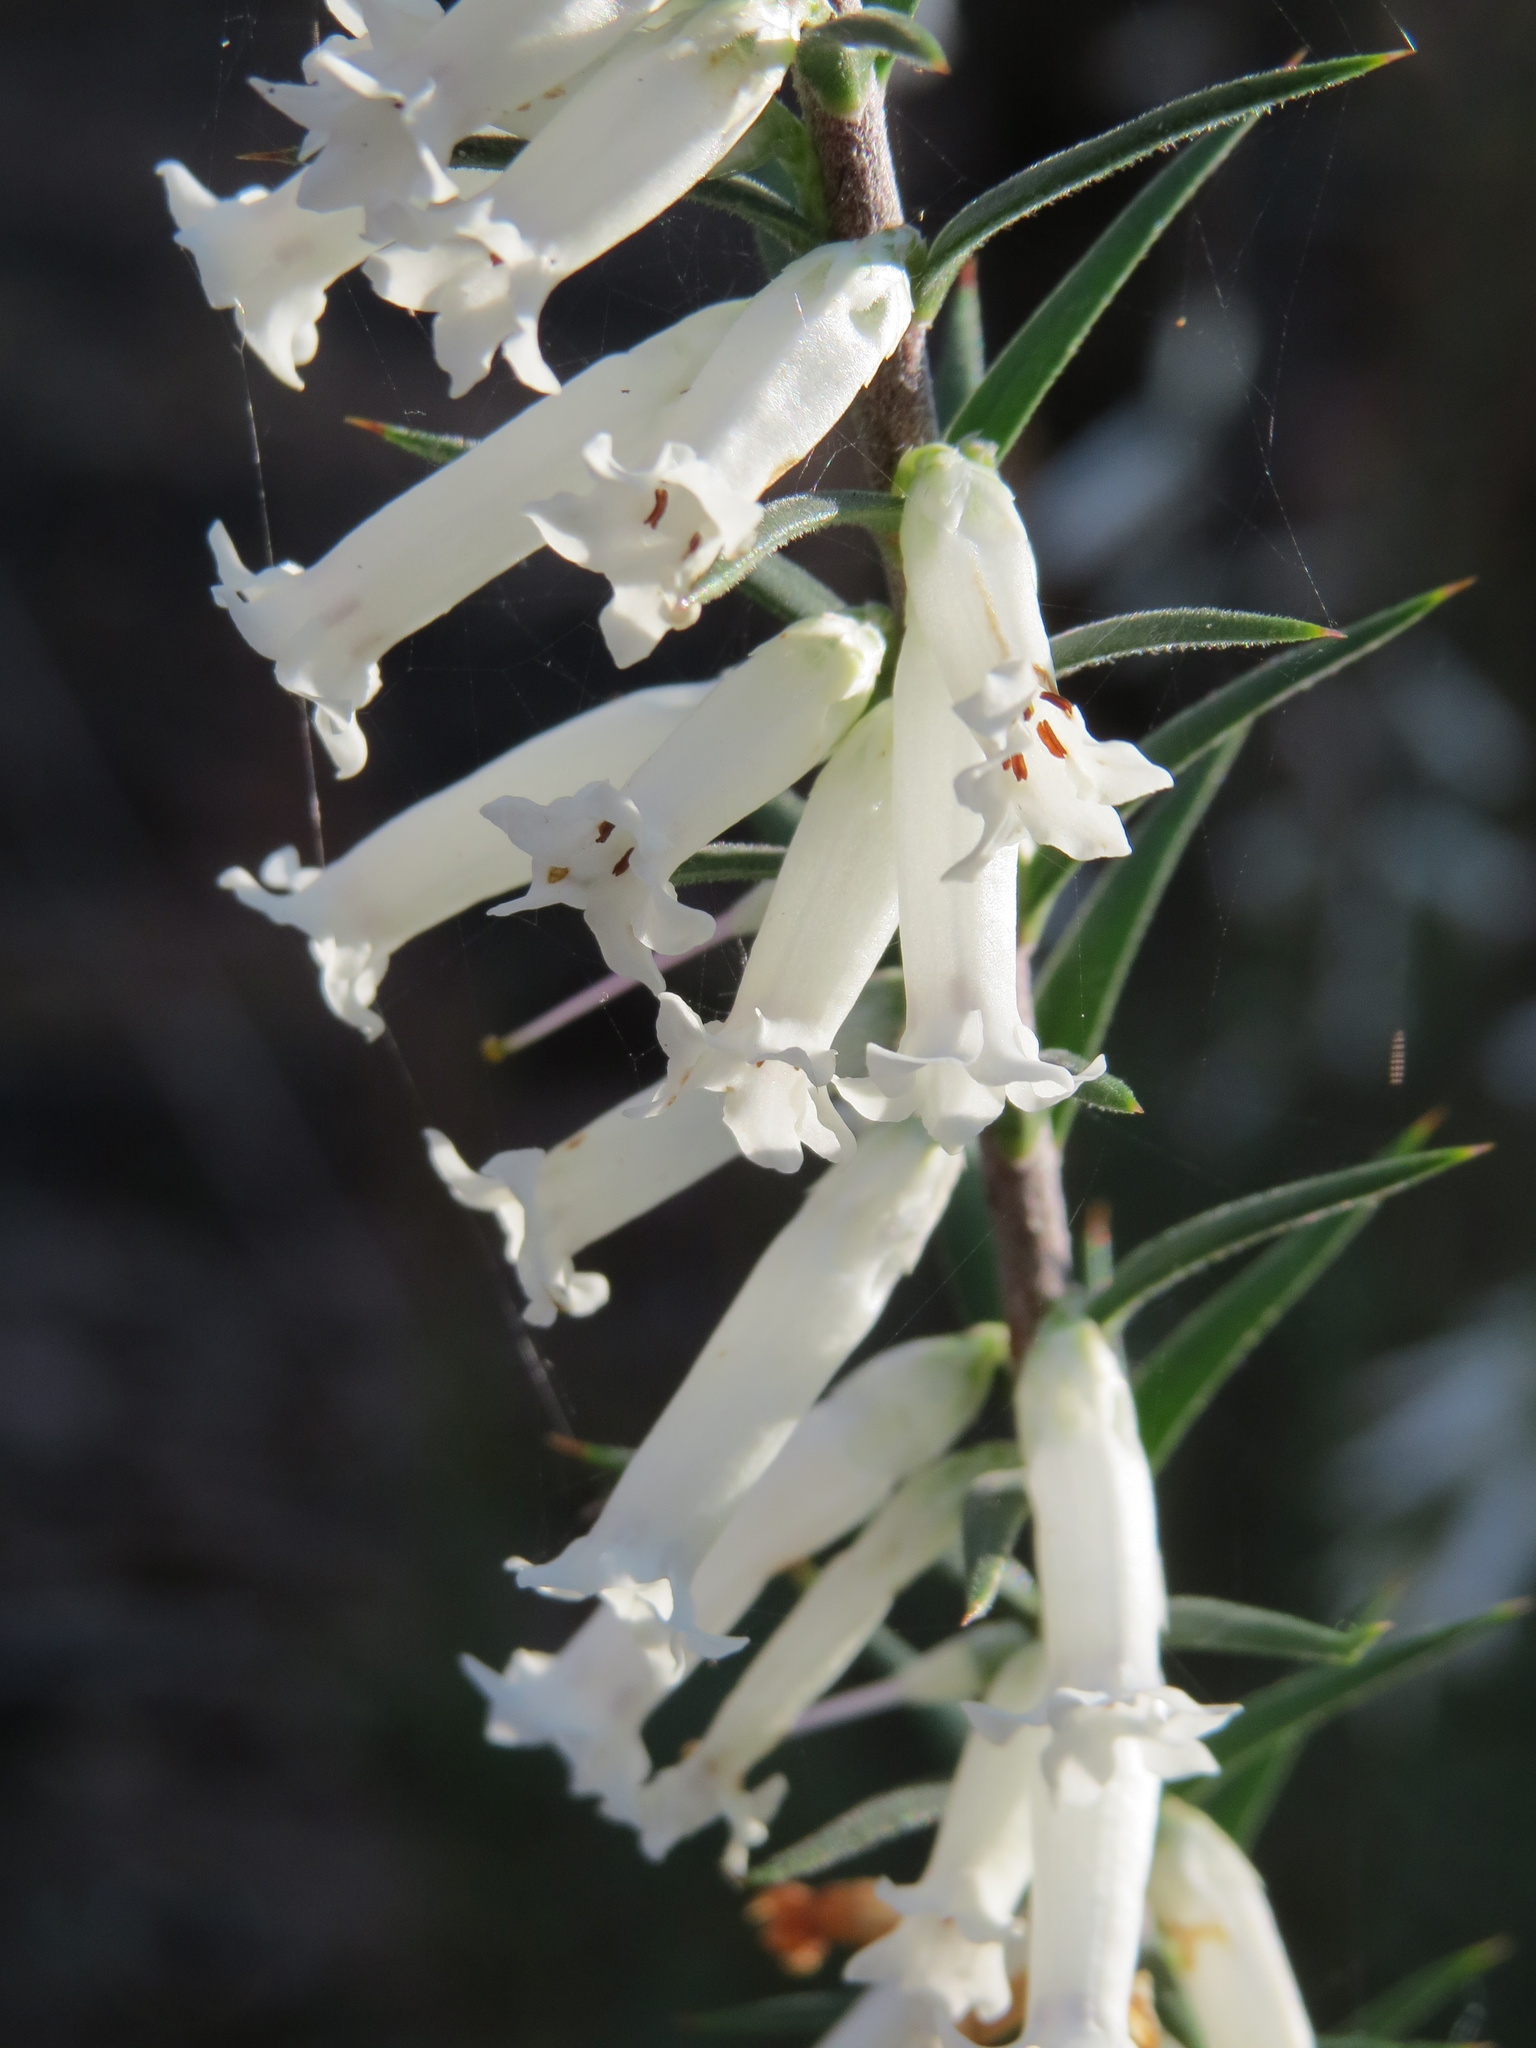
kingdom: Plantae
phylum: Tracheophyta
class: Magnoliopsida
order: Ericales
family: Ericaceae
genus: Epacris
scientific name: Epacris impressa
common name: Common-heath
